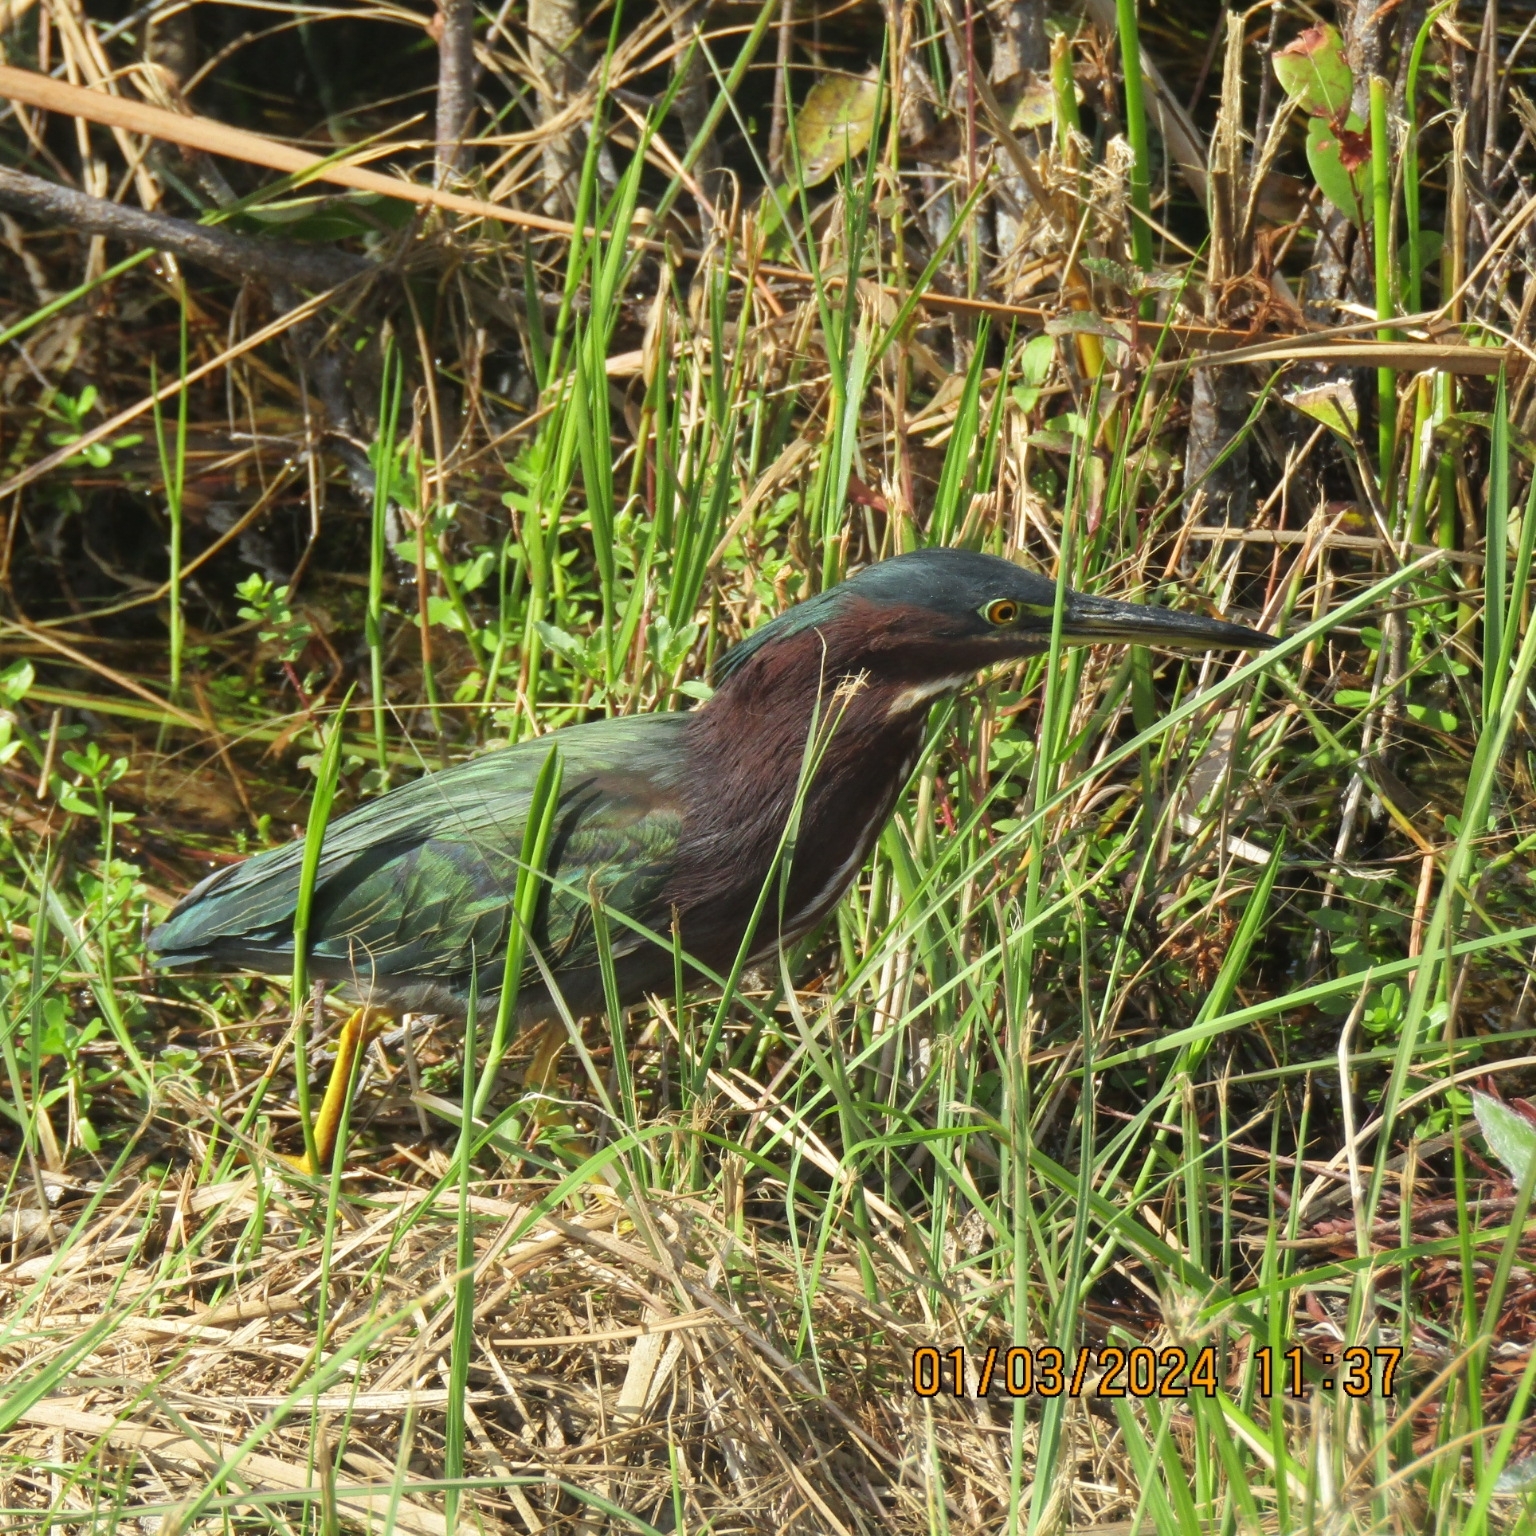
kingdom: Animalia
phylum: Chordata
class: Aves
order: Pelecaniformes
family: Ardeidae
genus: Butorides
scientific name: Butorides virescens
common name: Green heron
